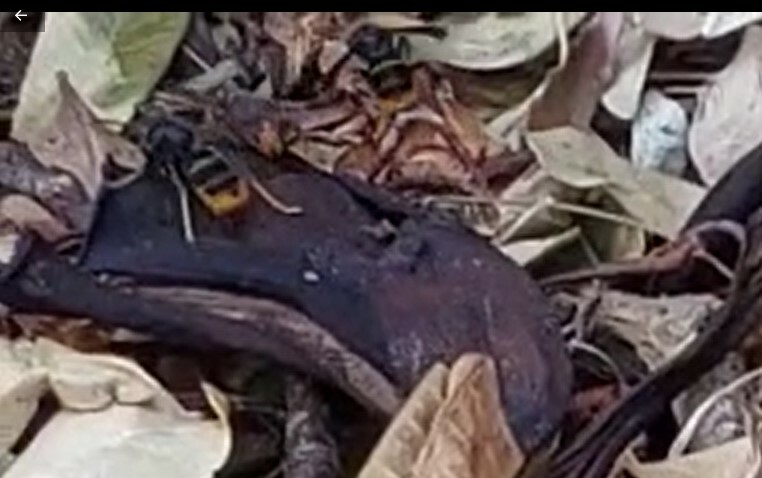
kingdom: Animalia
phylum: Arthropoda
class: Insecta
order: Hymenoptera
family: Vespidae
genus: Vespa
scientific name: Vespa velutina
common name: Asian hornet
